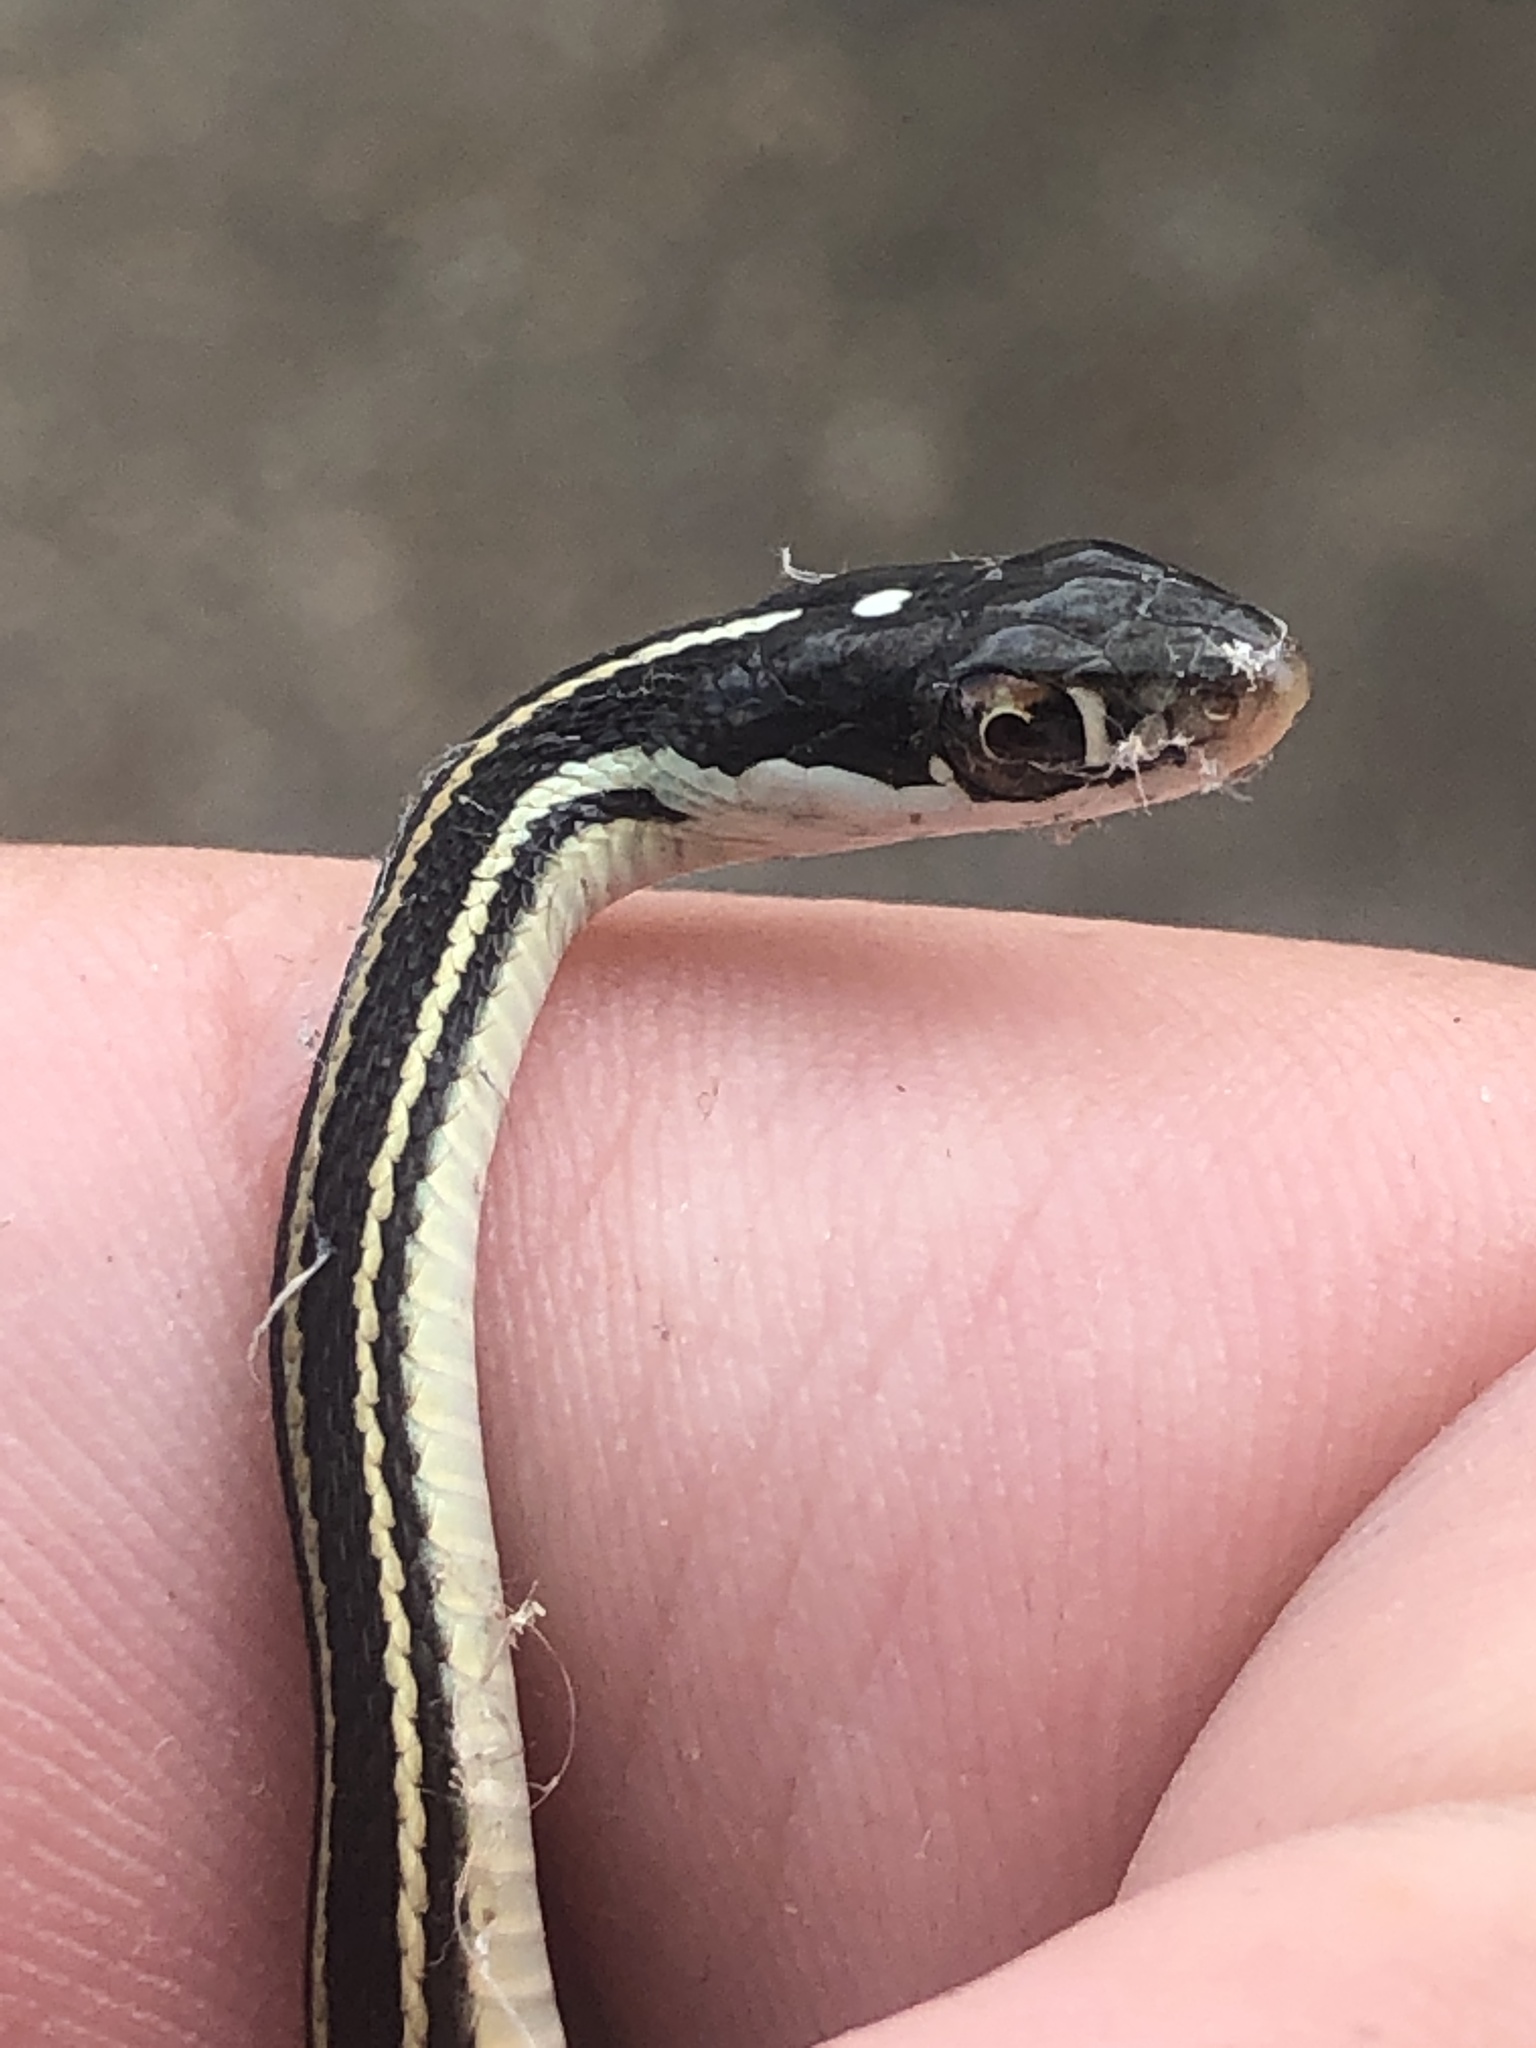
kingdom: Animalia
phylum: Chordata
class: Squamata
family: Colubridae
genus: Thamnophis
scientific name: Thamnophis proximus
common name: Western ribbon snake
